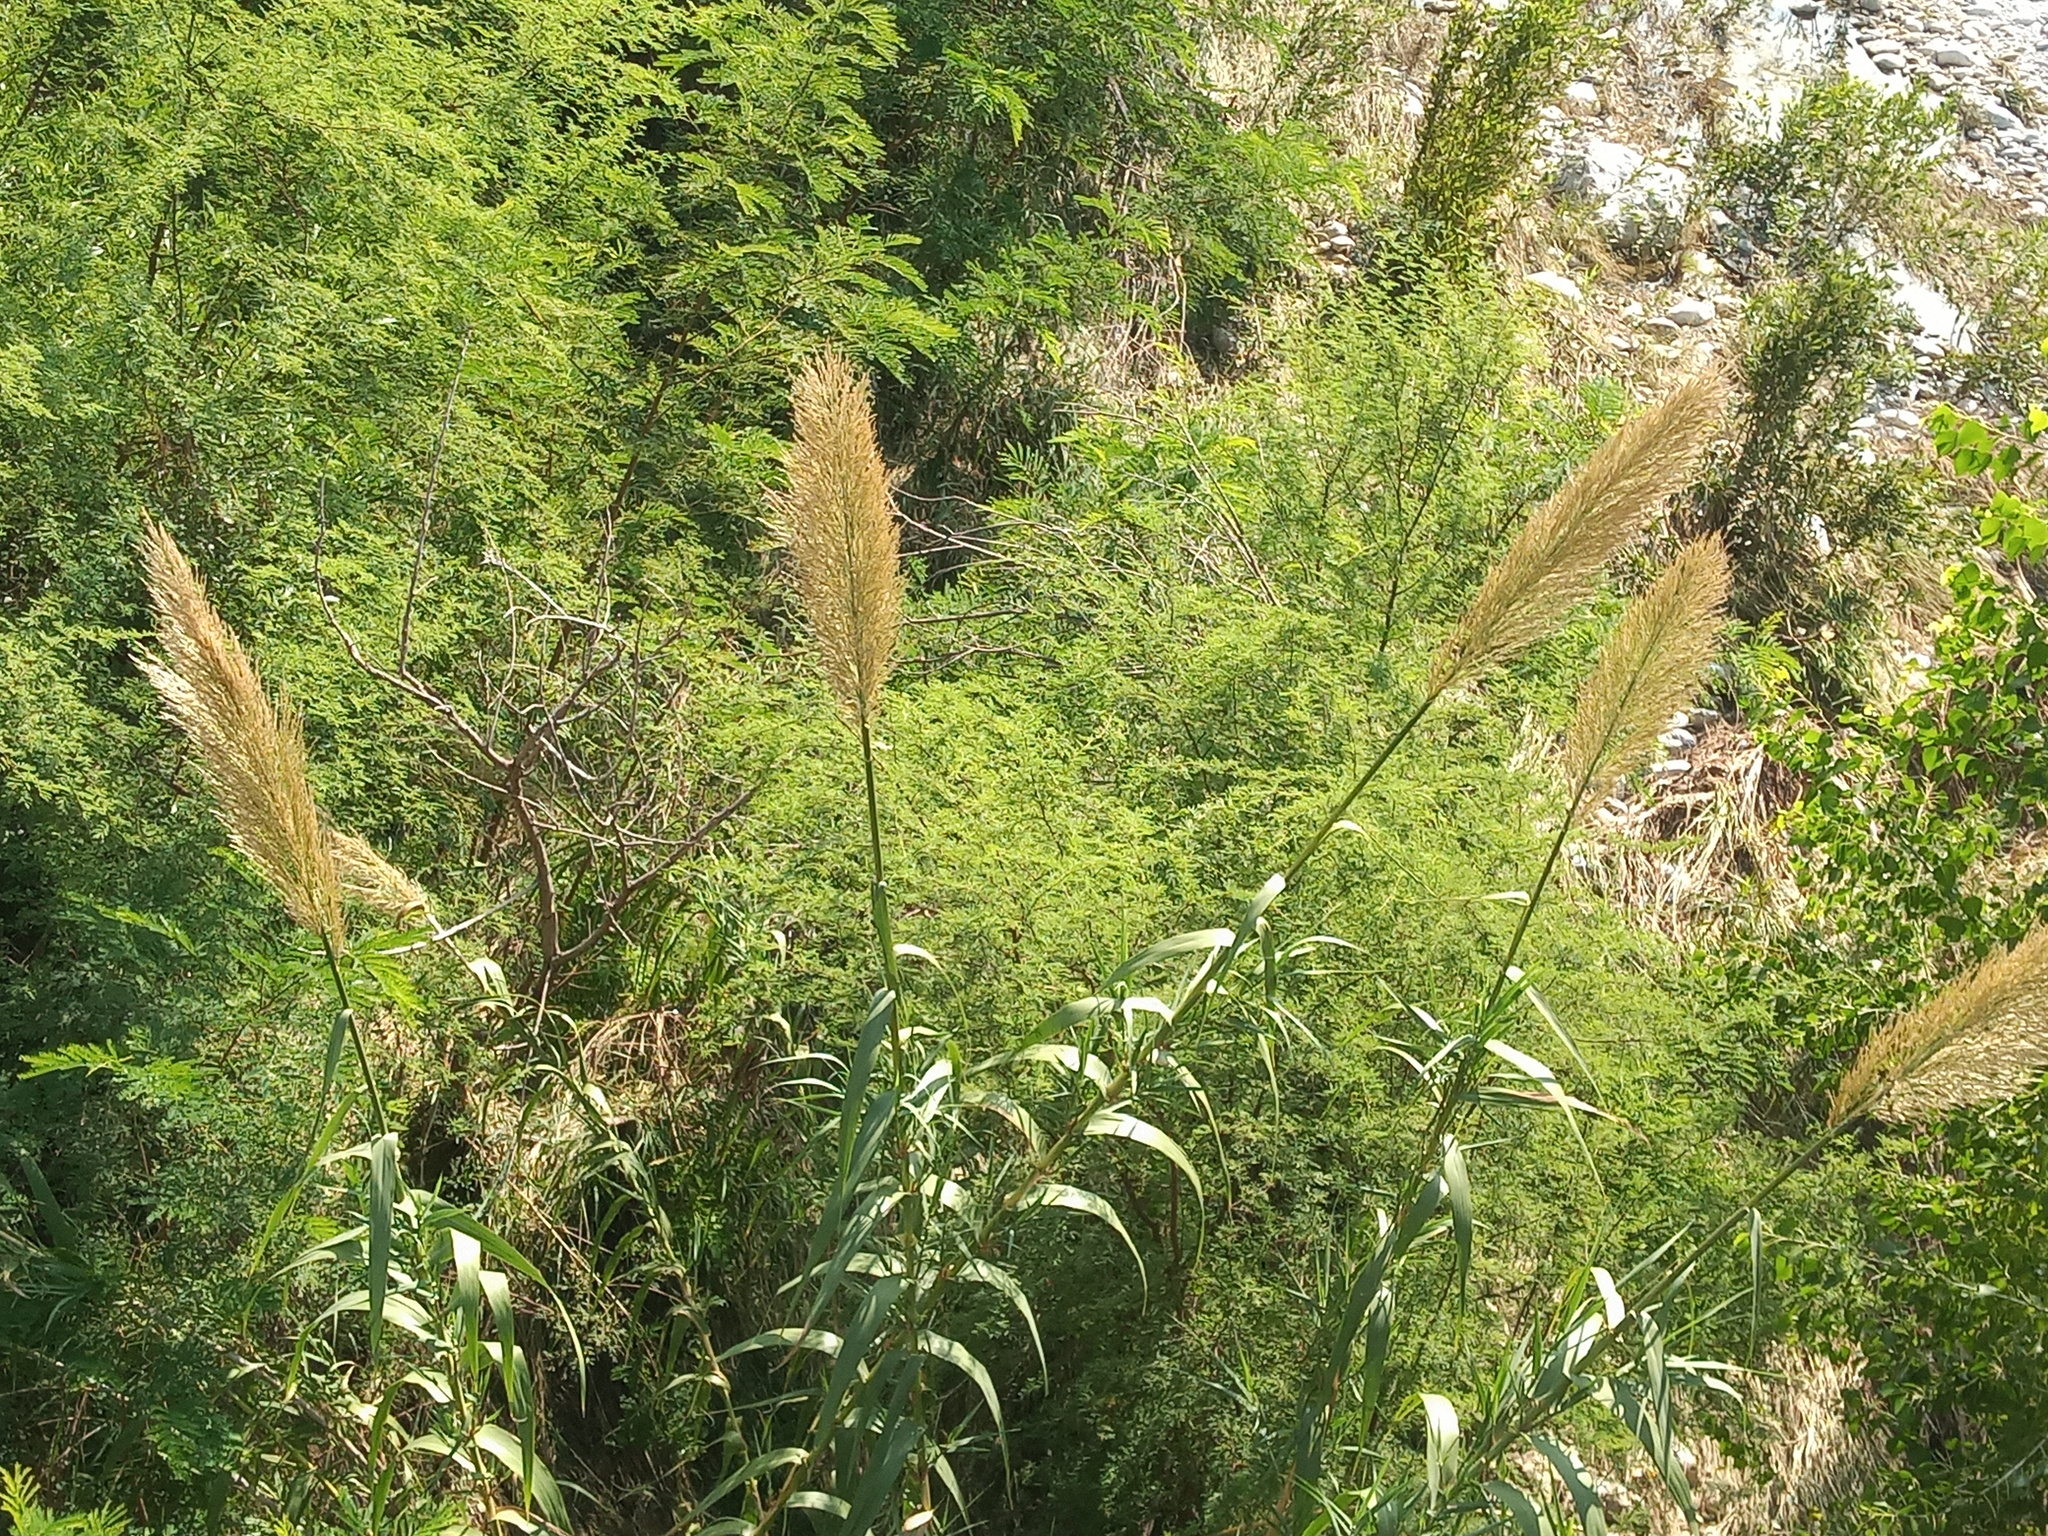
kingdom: Plantae
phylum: Tracheophyta
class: Liliopsida
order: Poales
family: Poaceae
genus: Arundo
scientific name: Arundo donax
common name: Giant reed
